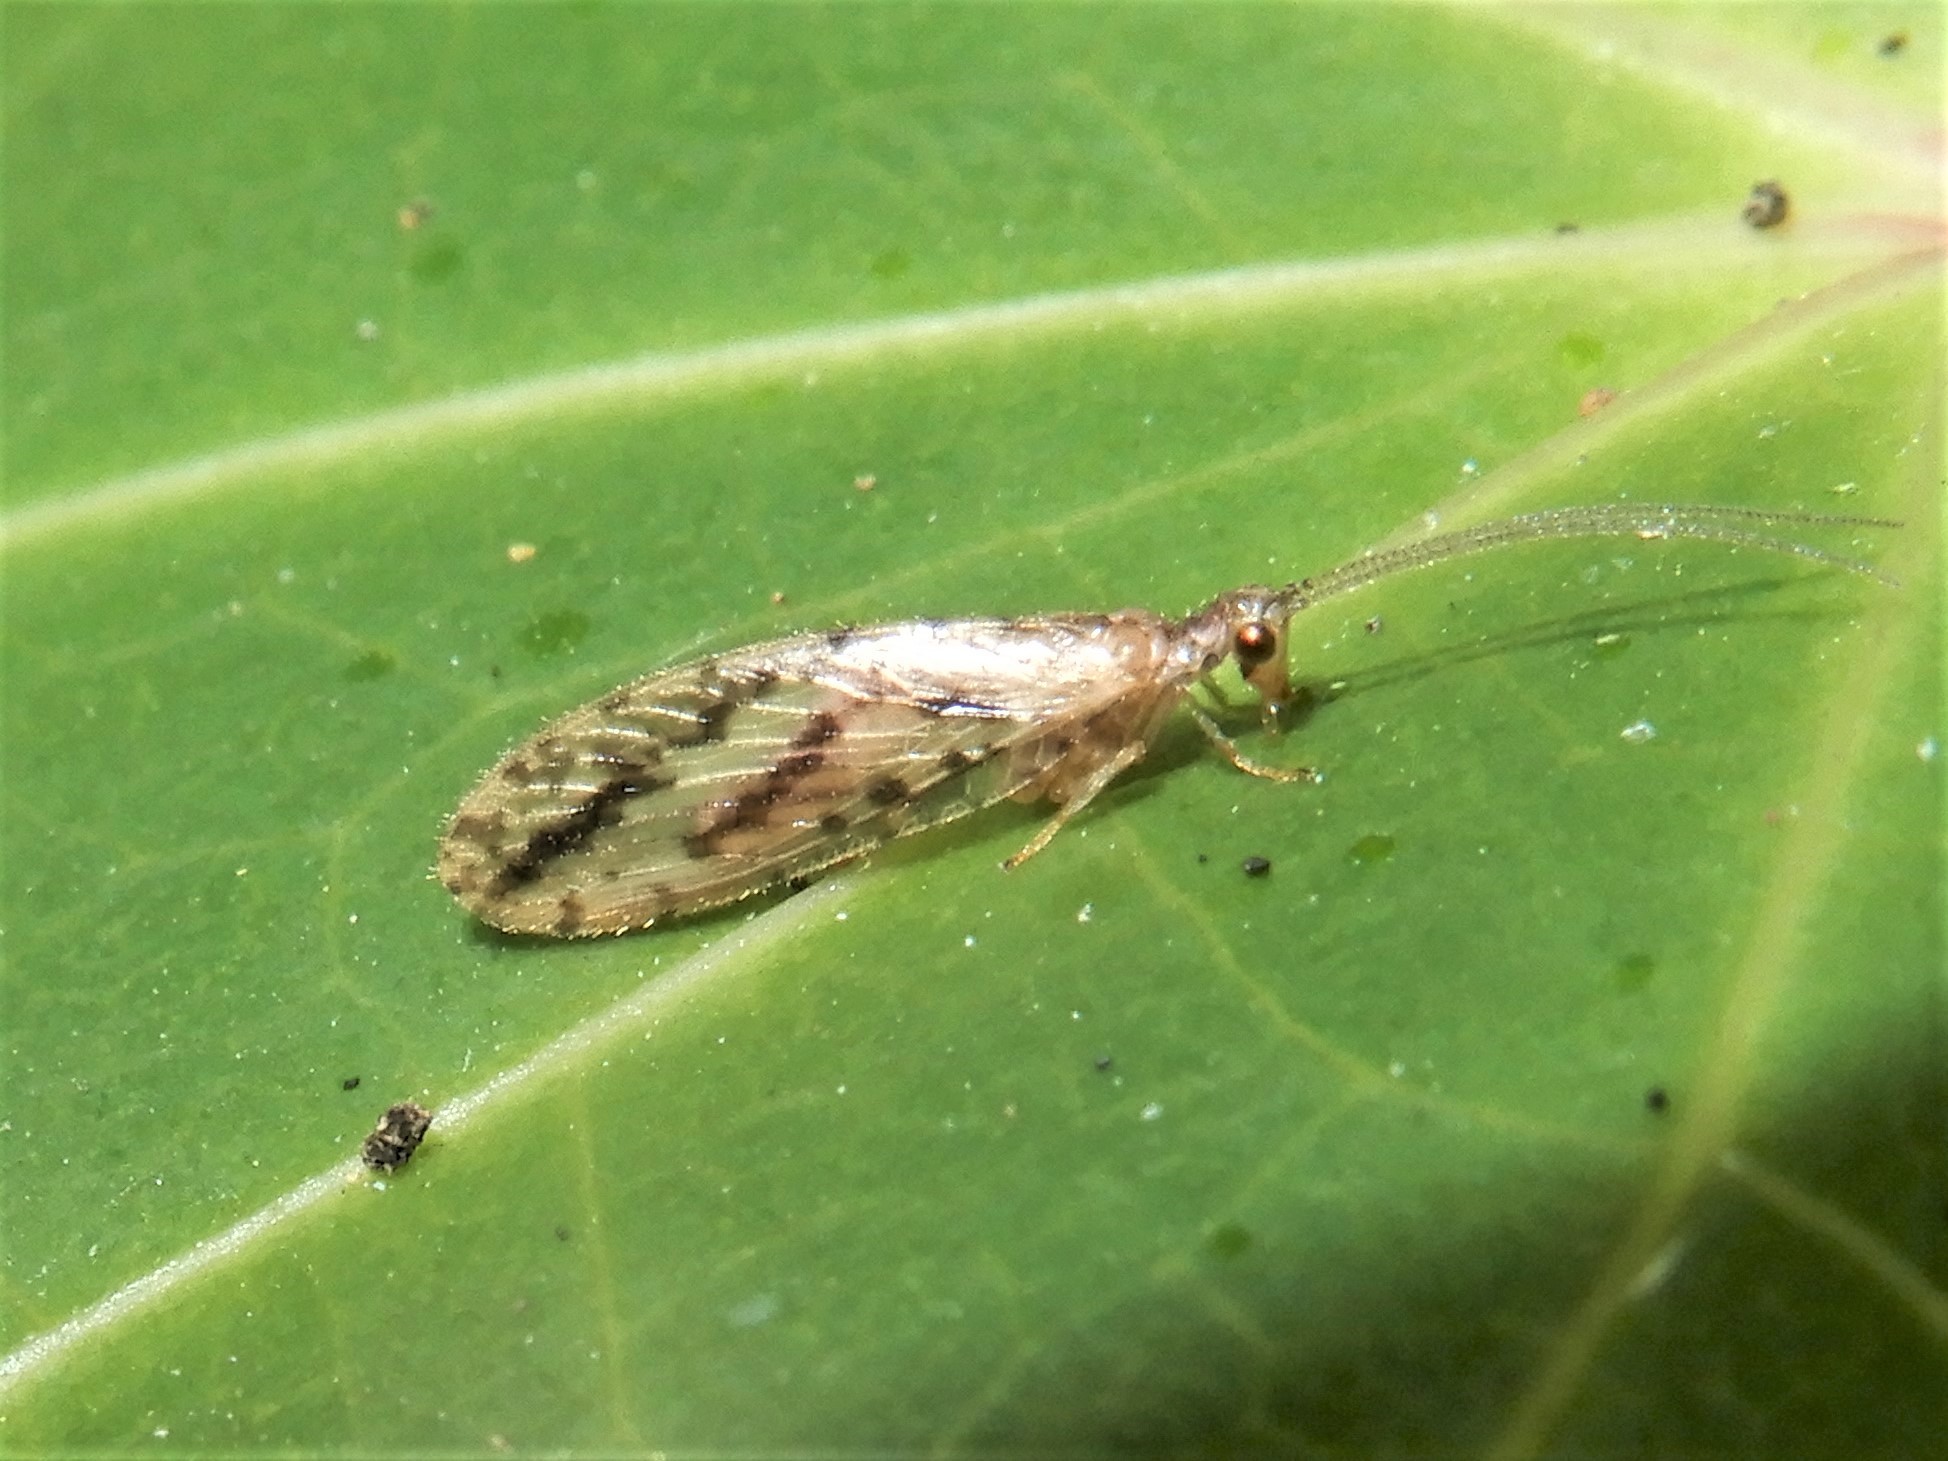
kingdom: Animalia
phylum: Arthropoda
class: Insecta
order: Neuroptera
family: Hemerobiidae
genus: Micromus
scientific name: Micromus bifasciatus
